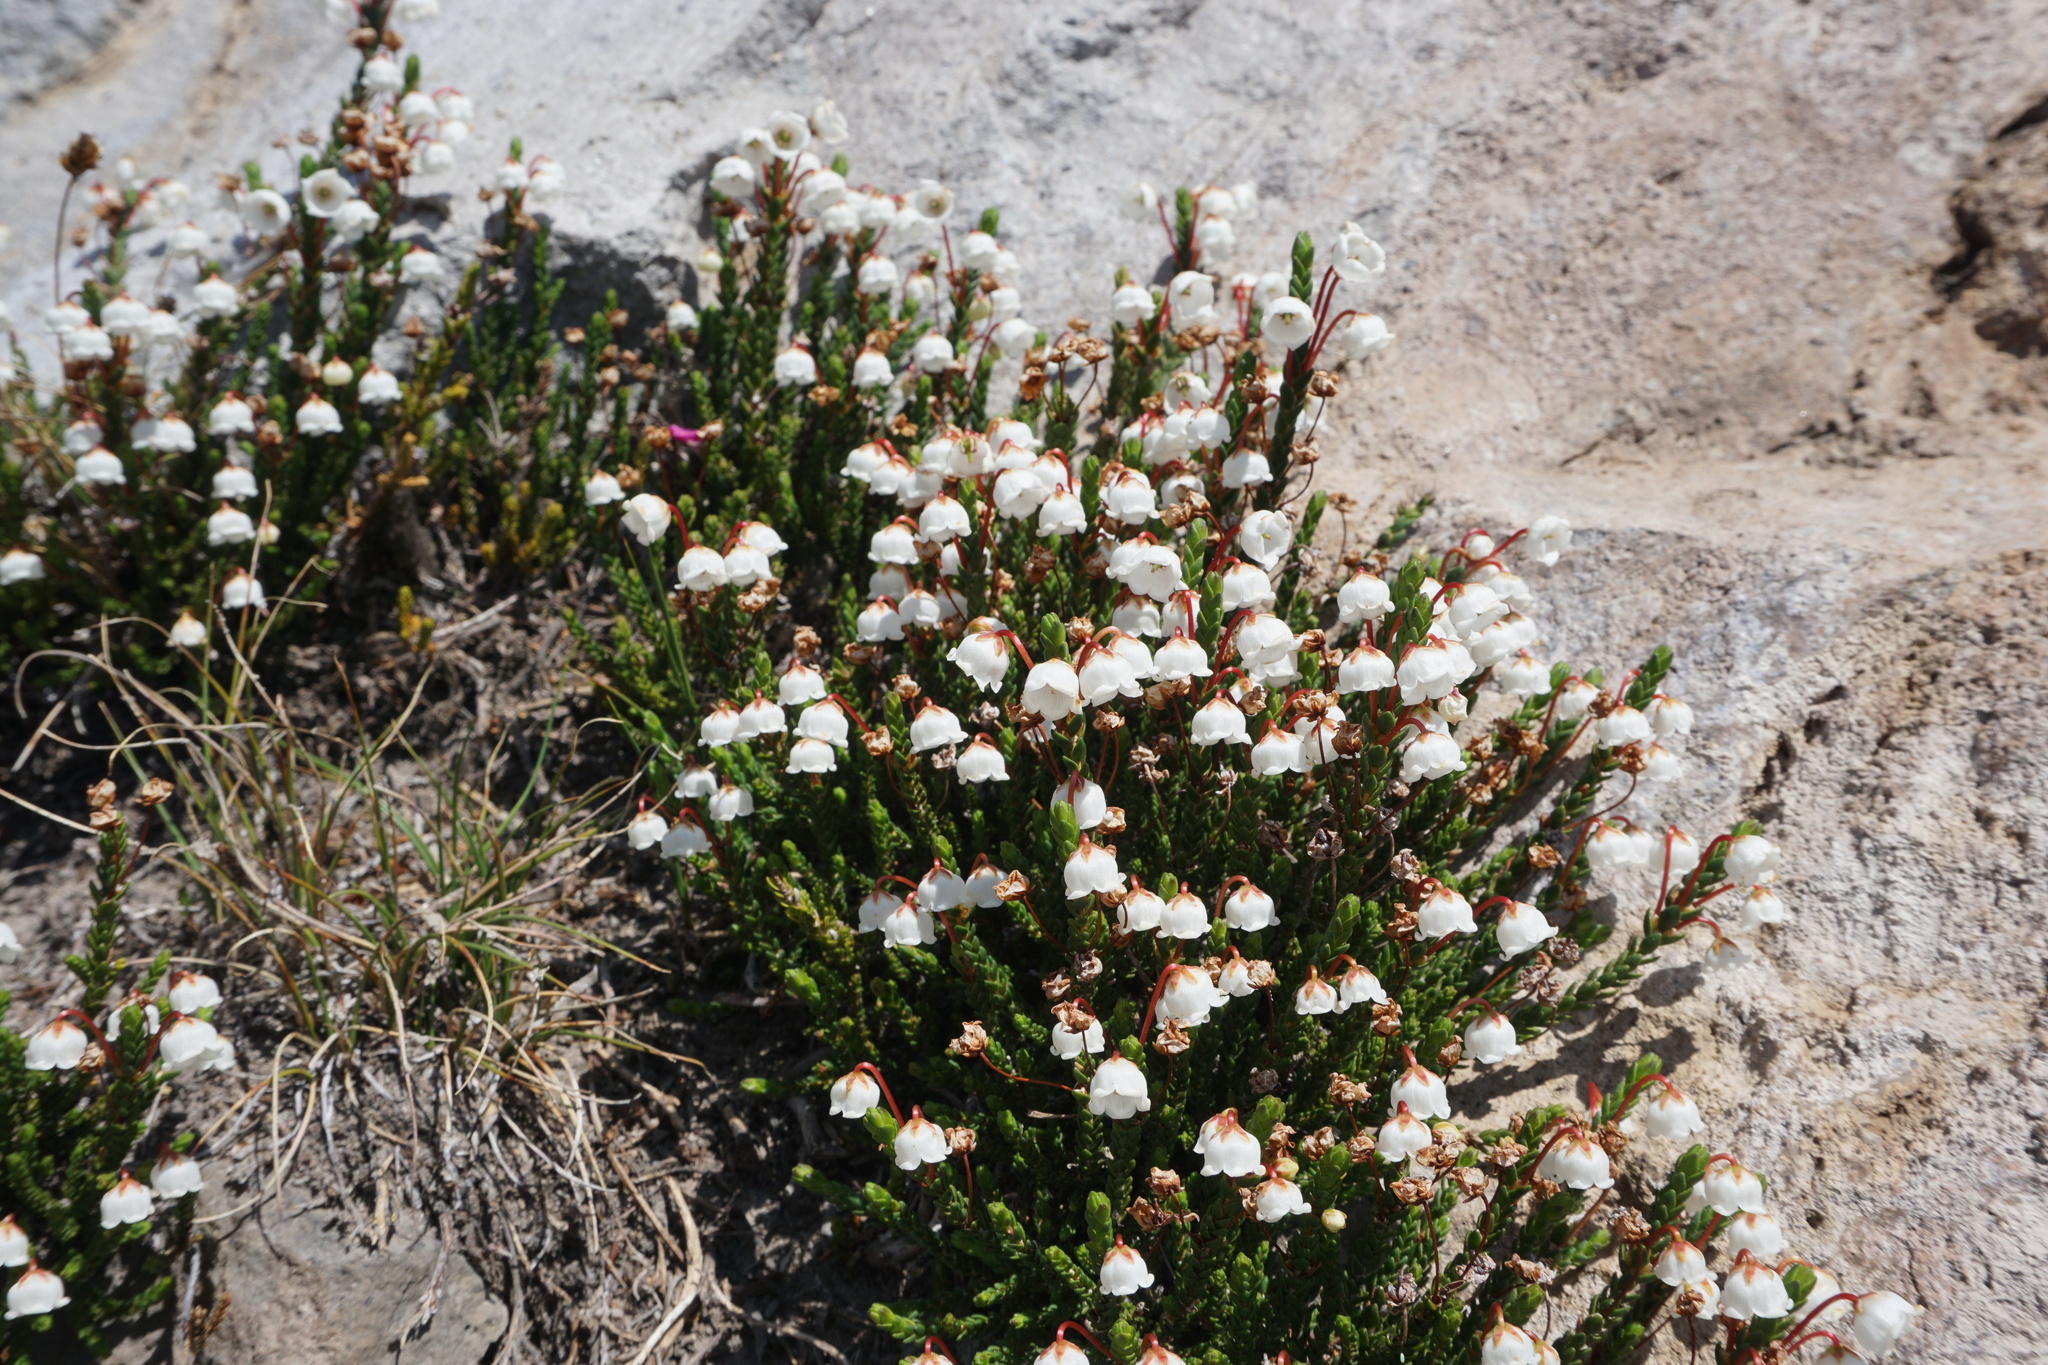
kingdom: Plantae
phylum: Tracheophyta
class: Magnoliopsida
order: Ericales
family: Ericaceae
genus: Cassiope
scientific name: Cassiope mertensiana
